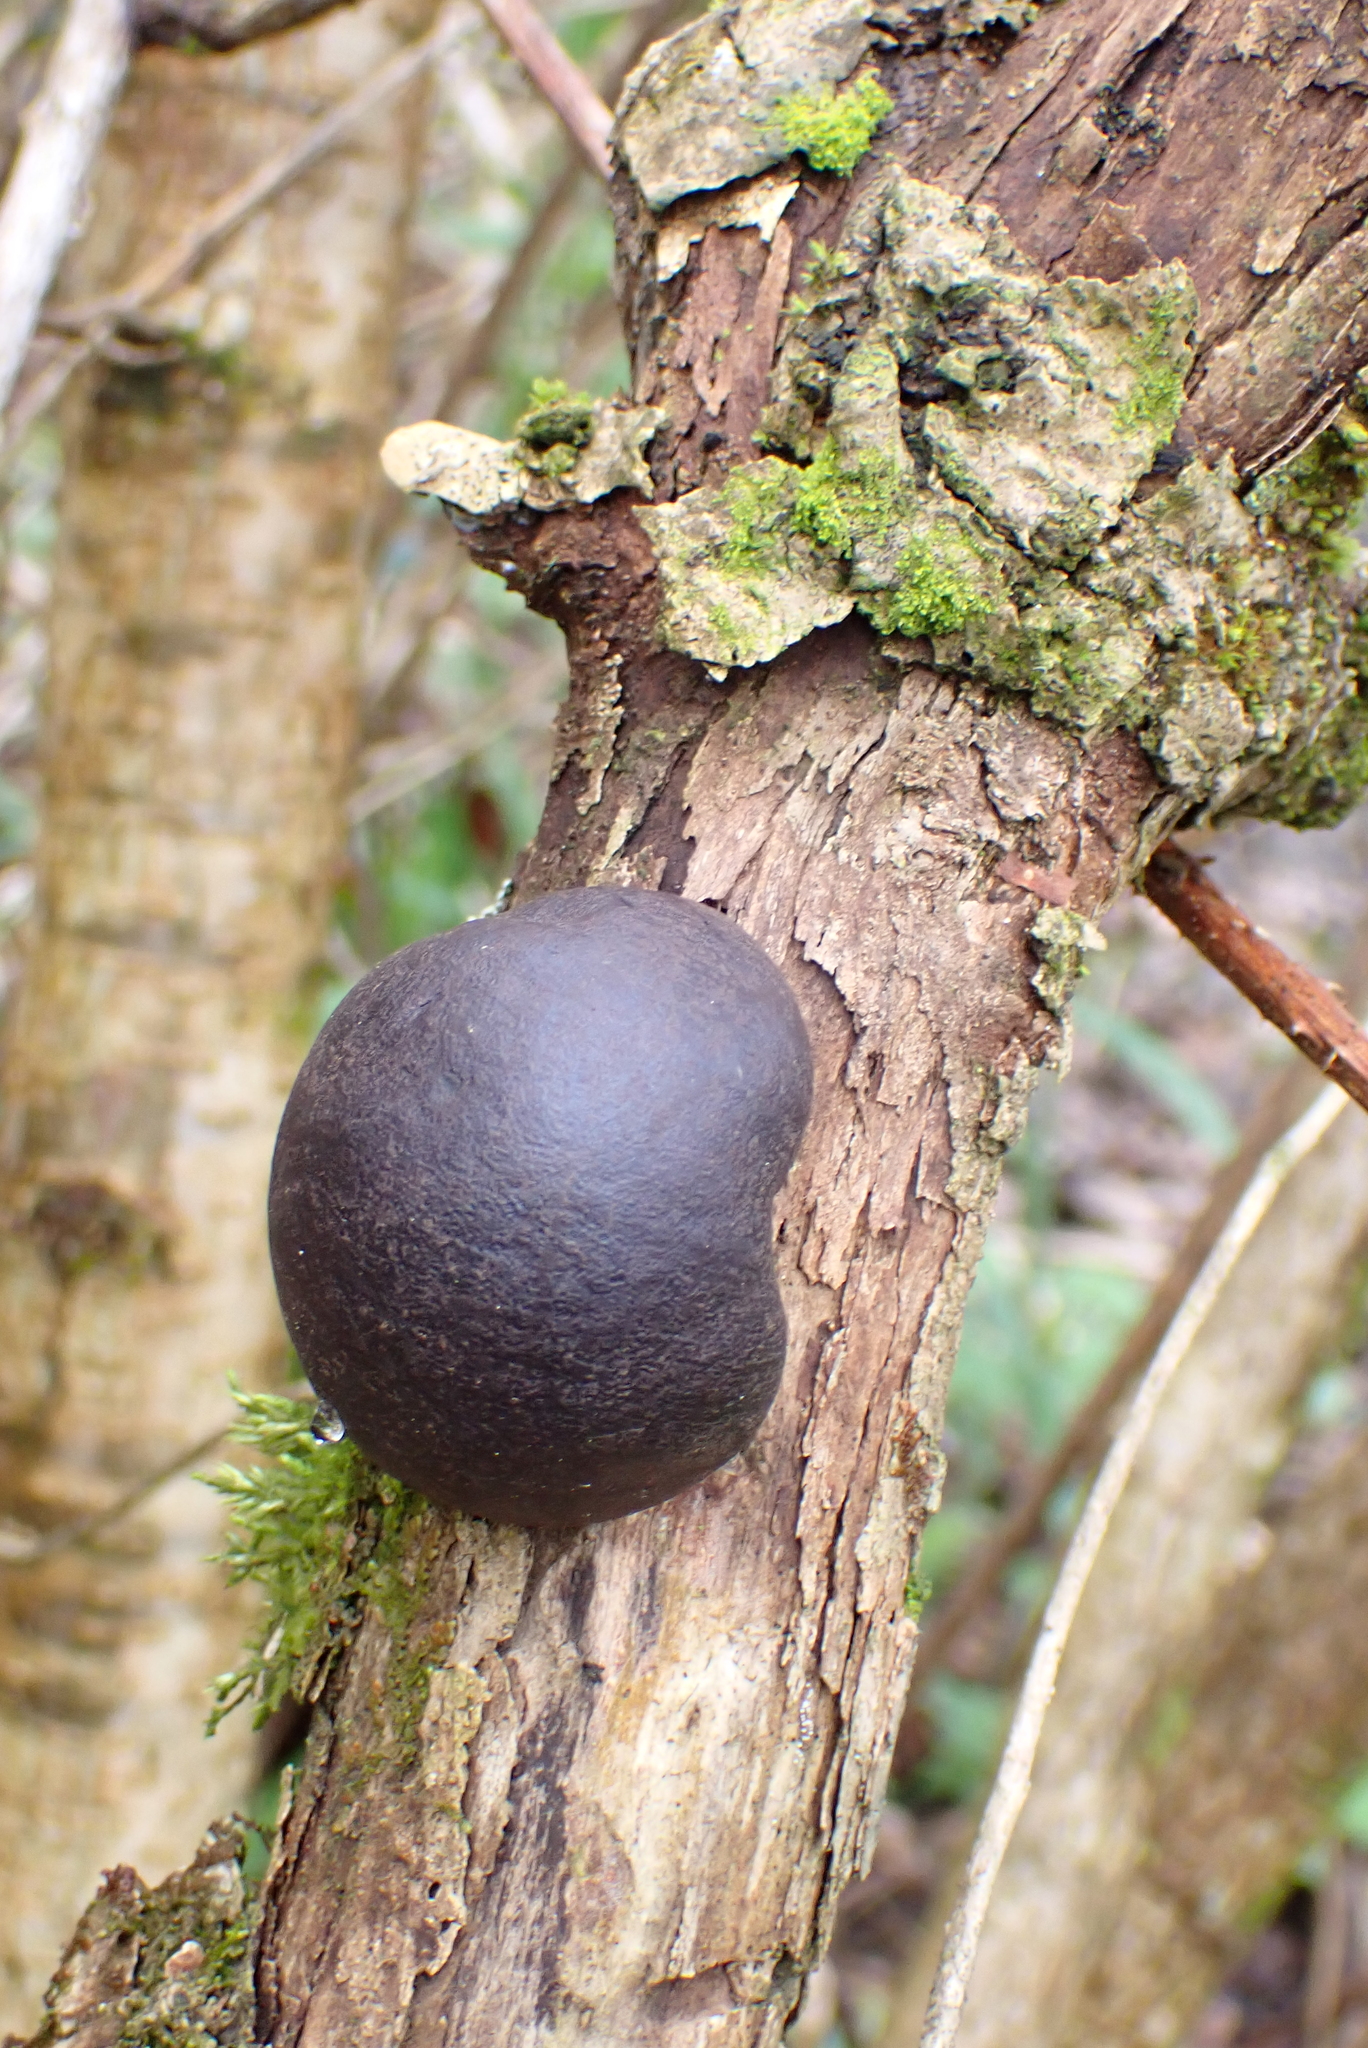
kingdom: Fungi
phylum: Ascomycota
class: Sordariomycetes
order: Xylariales
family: Hypoxylaceae
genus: Daldinia
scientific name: Daldinia concentrica
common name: Cramp balls
